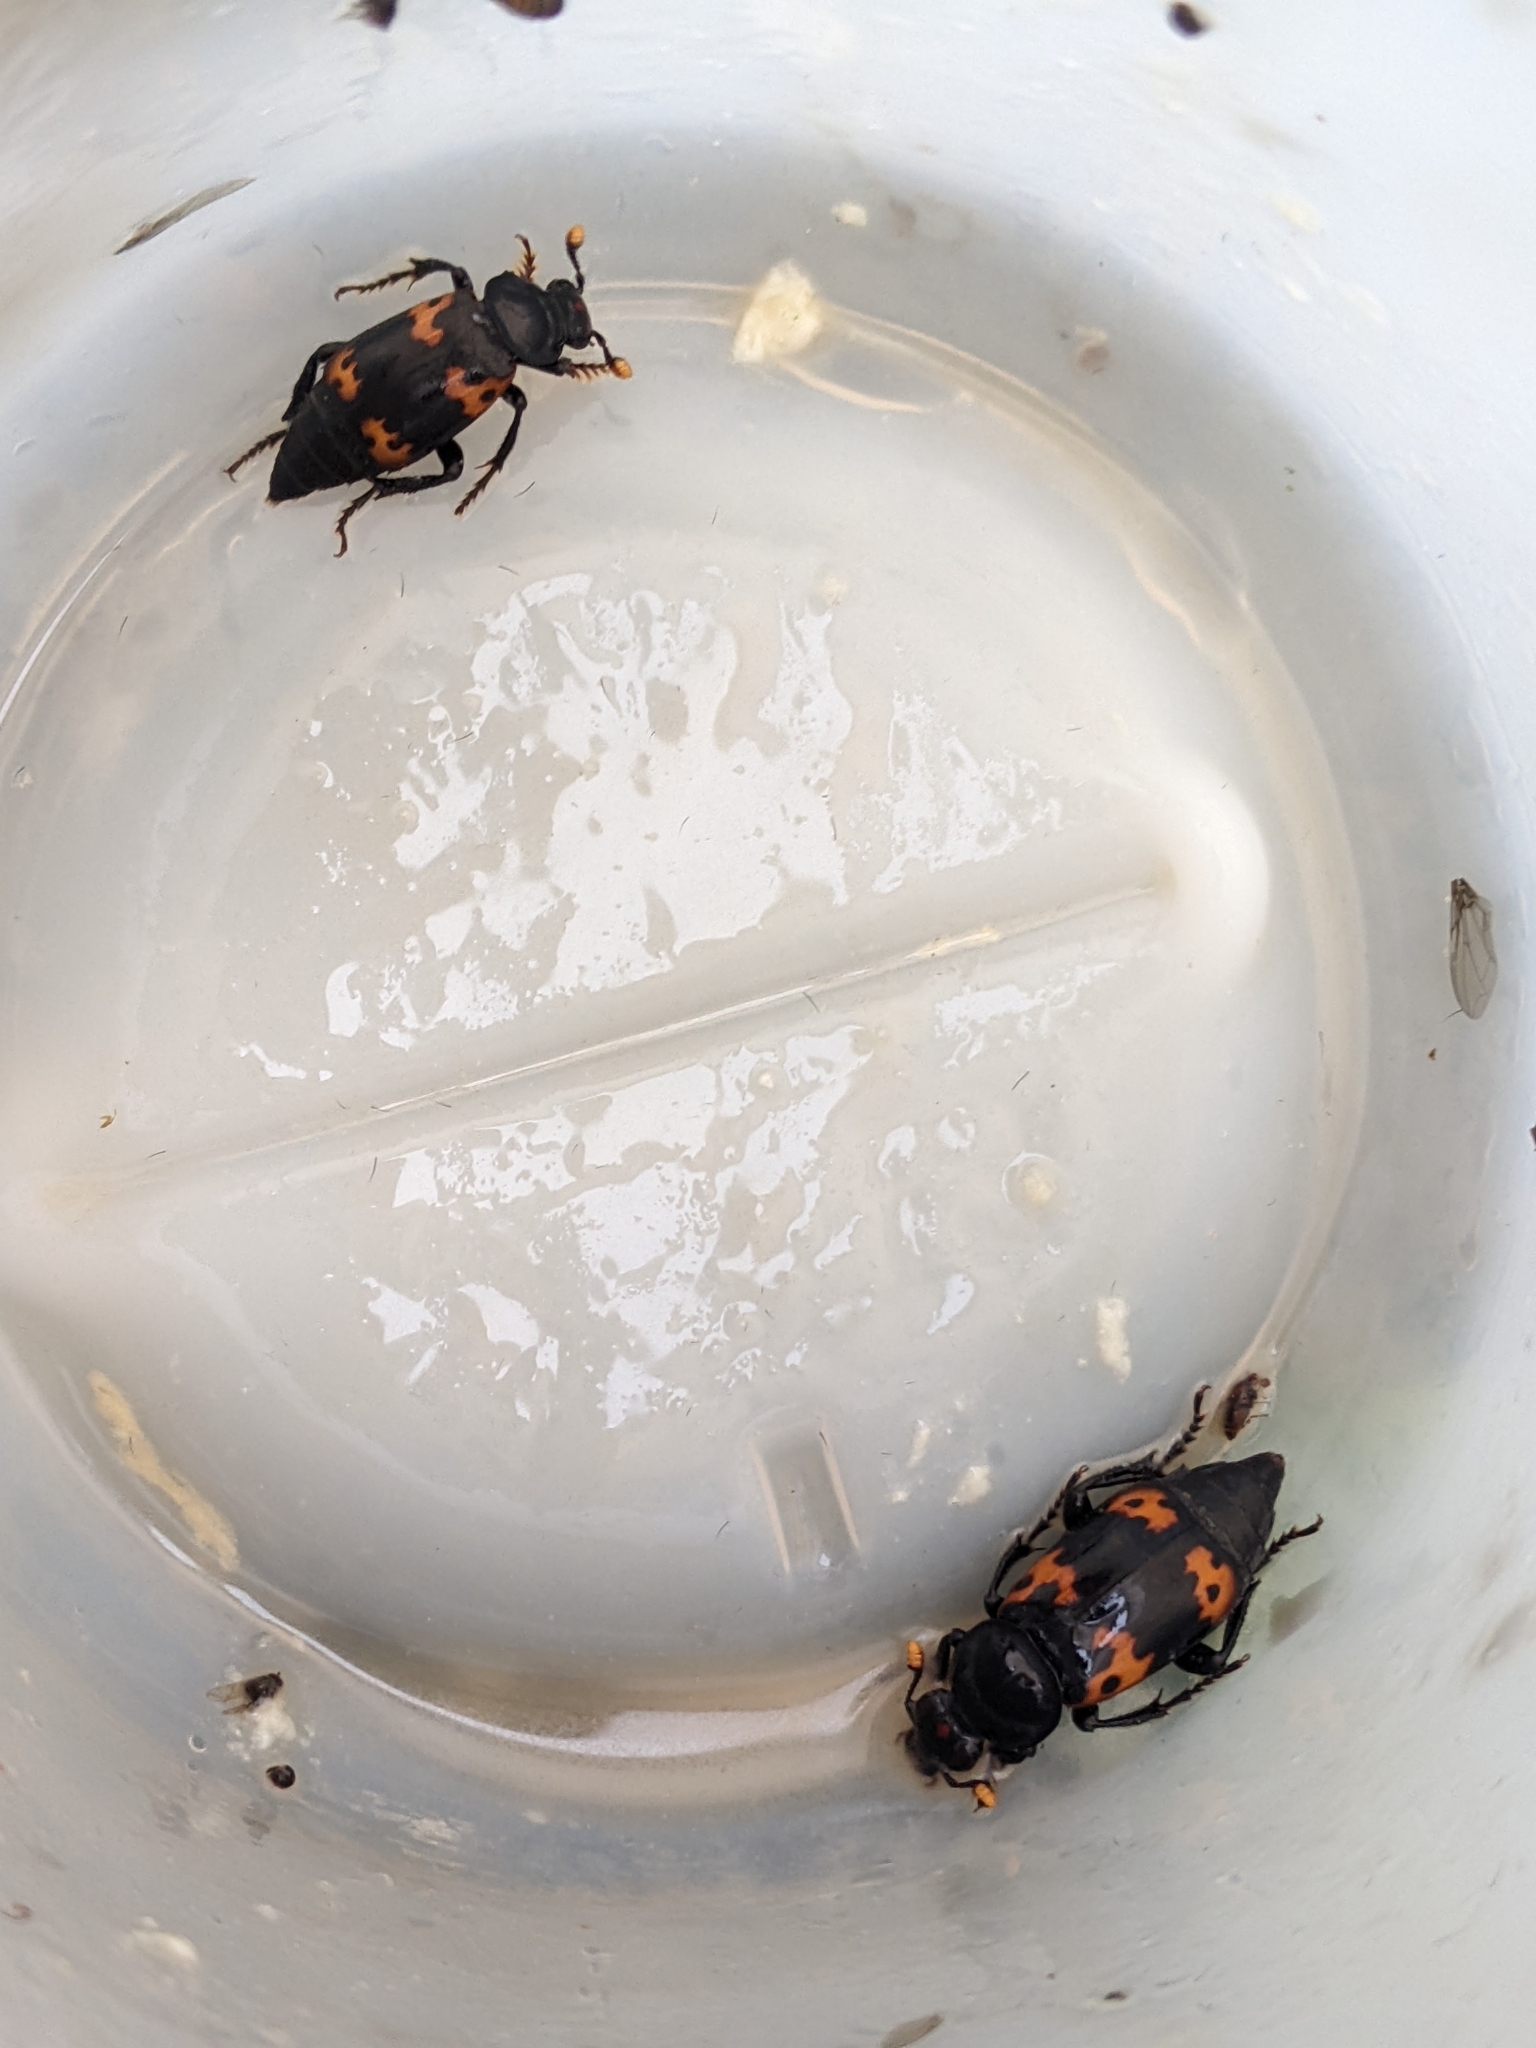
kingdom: Animalia
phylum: Arthropoda
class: Insecta
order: Coleoptera
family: Staphylinidae
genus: Nicrophorus
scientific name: Nicrophorus nepalensis
